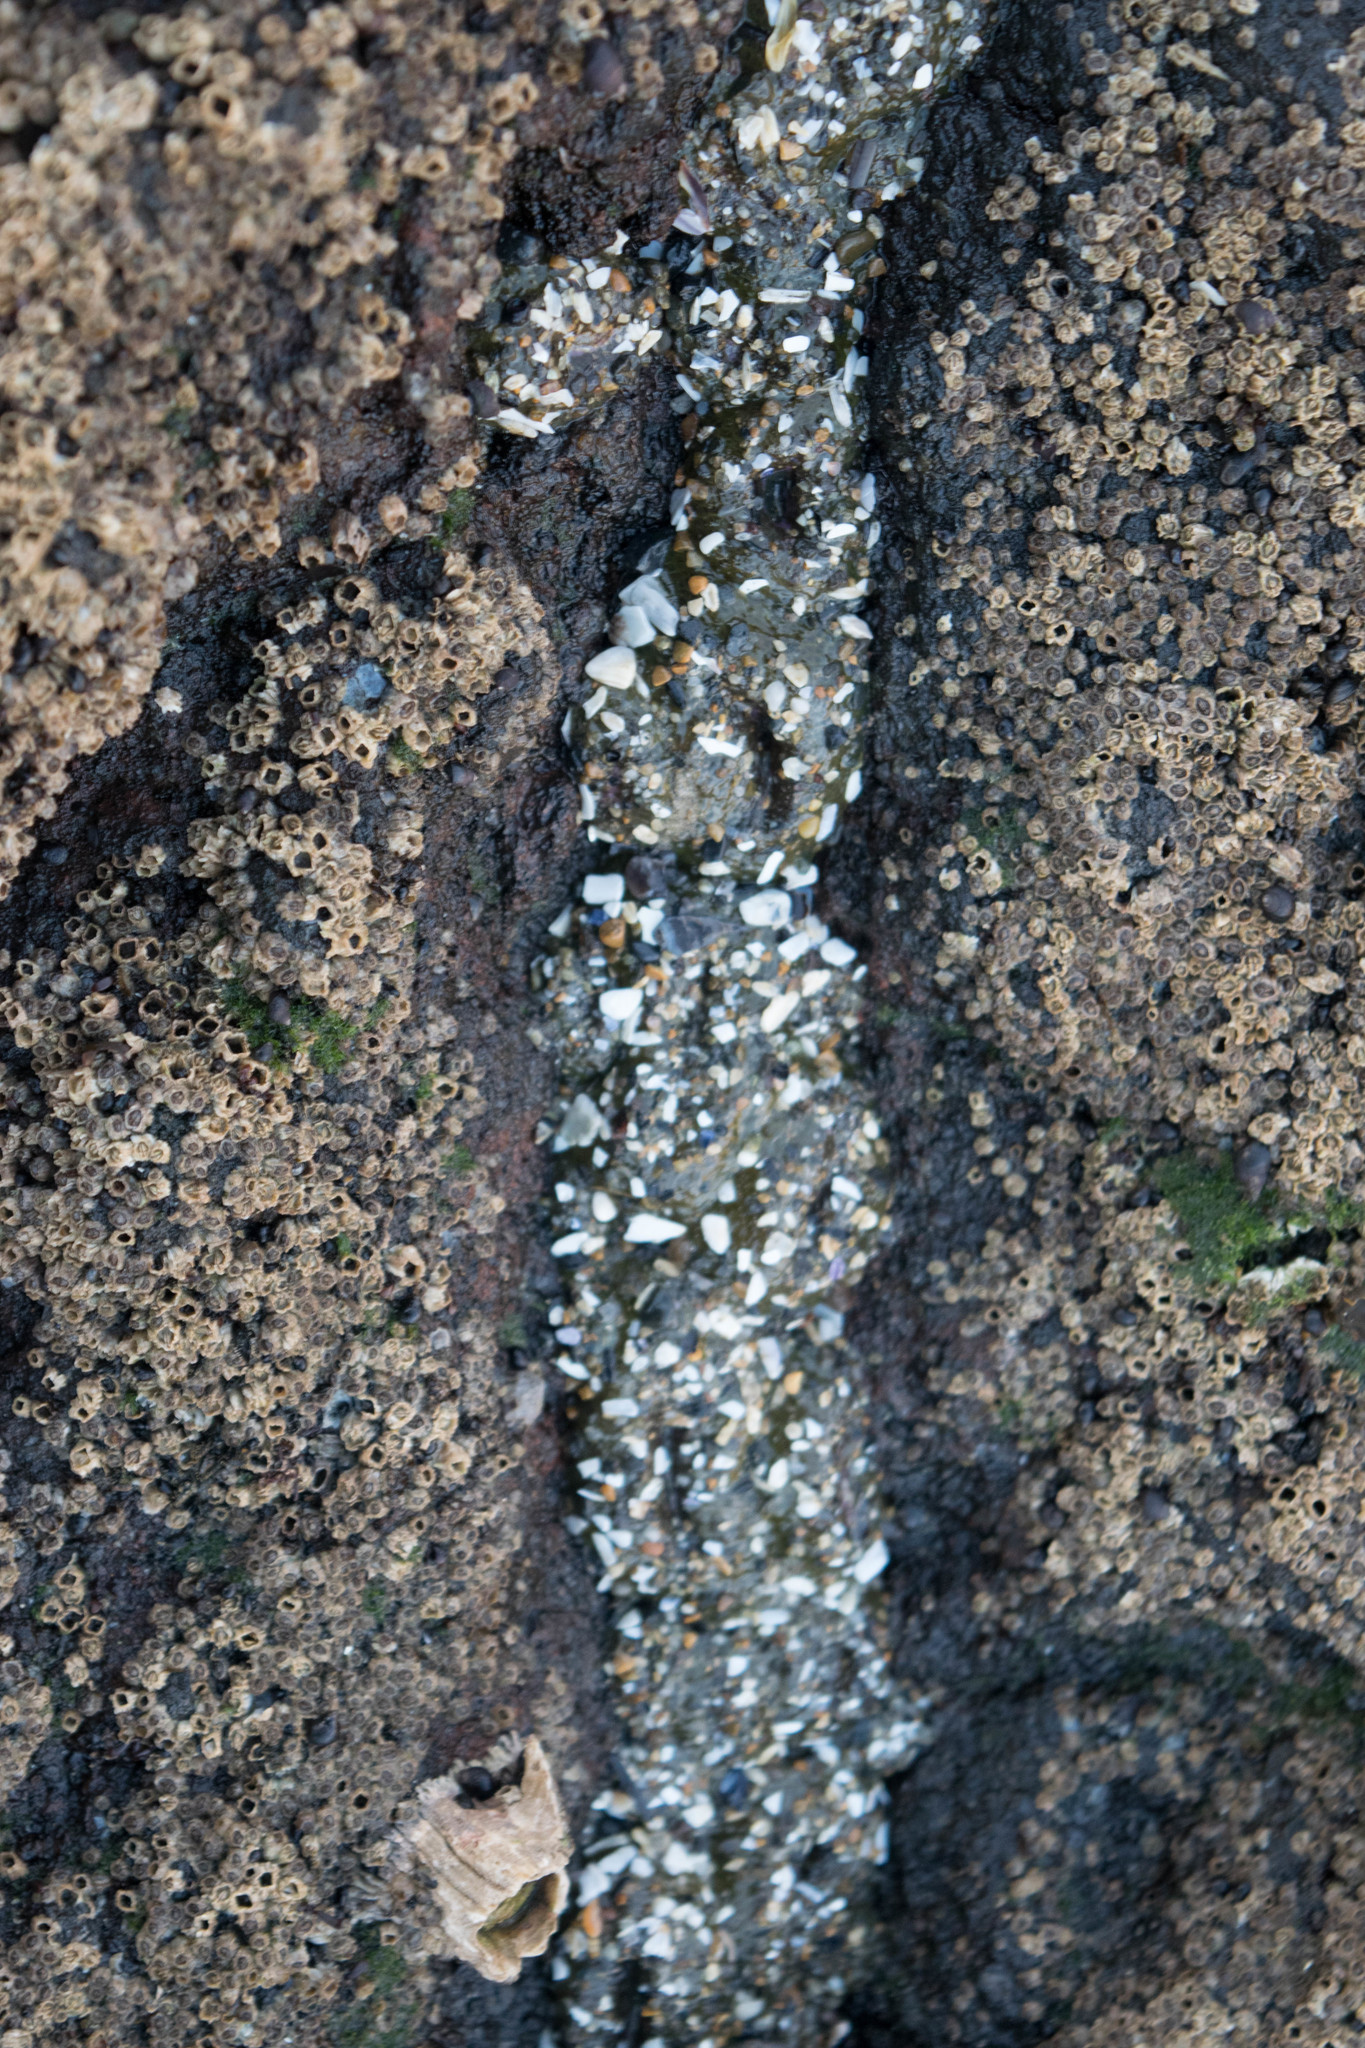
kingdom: Animalia
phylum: Cnidaria
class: Anthozoa
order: Actiniaria
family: Actiniidae
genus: Anthopleura
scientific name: Anthopleura elegantissima
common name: Clonal anemone
